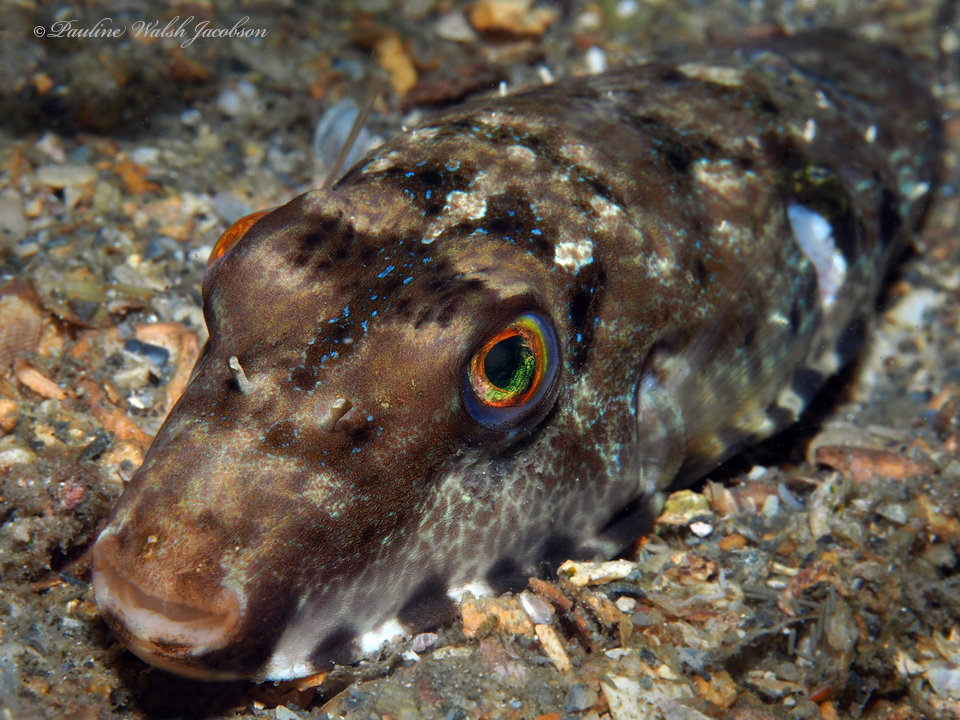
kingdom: Animalia
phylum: Chordata
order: Tetraodontiformes
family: Tetraodontidae
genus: Sphoeroides
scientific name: Sphoeroides spengleri
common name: Bandtail puffer
